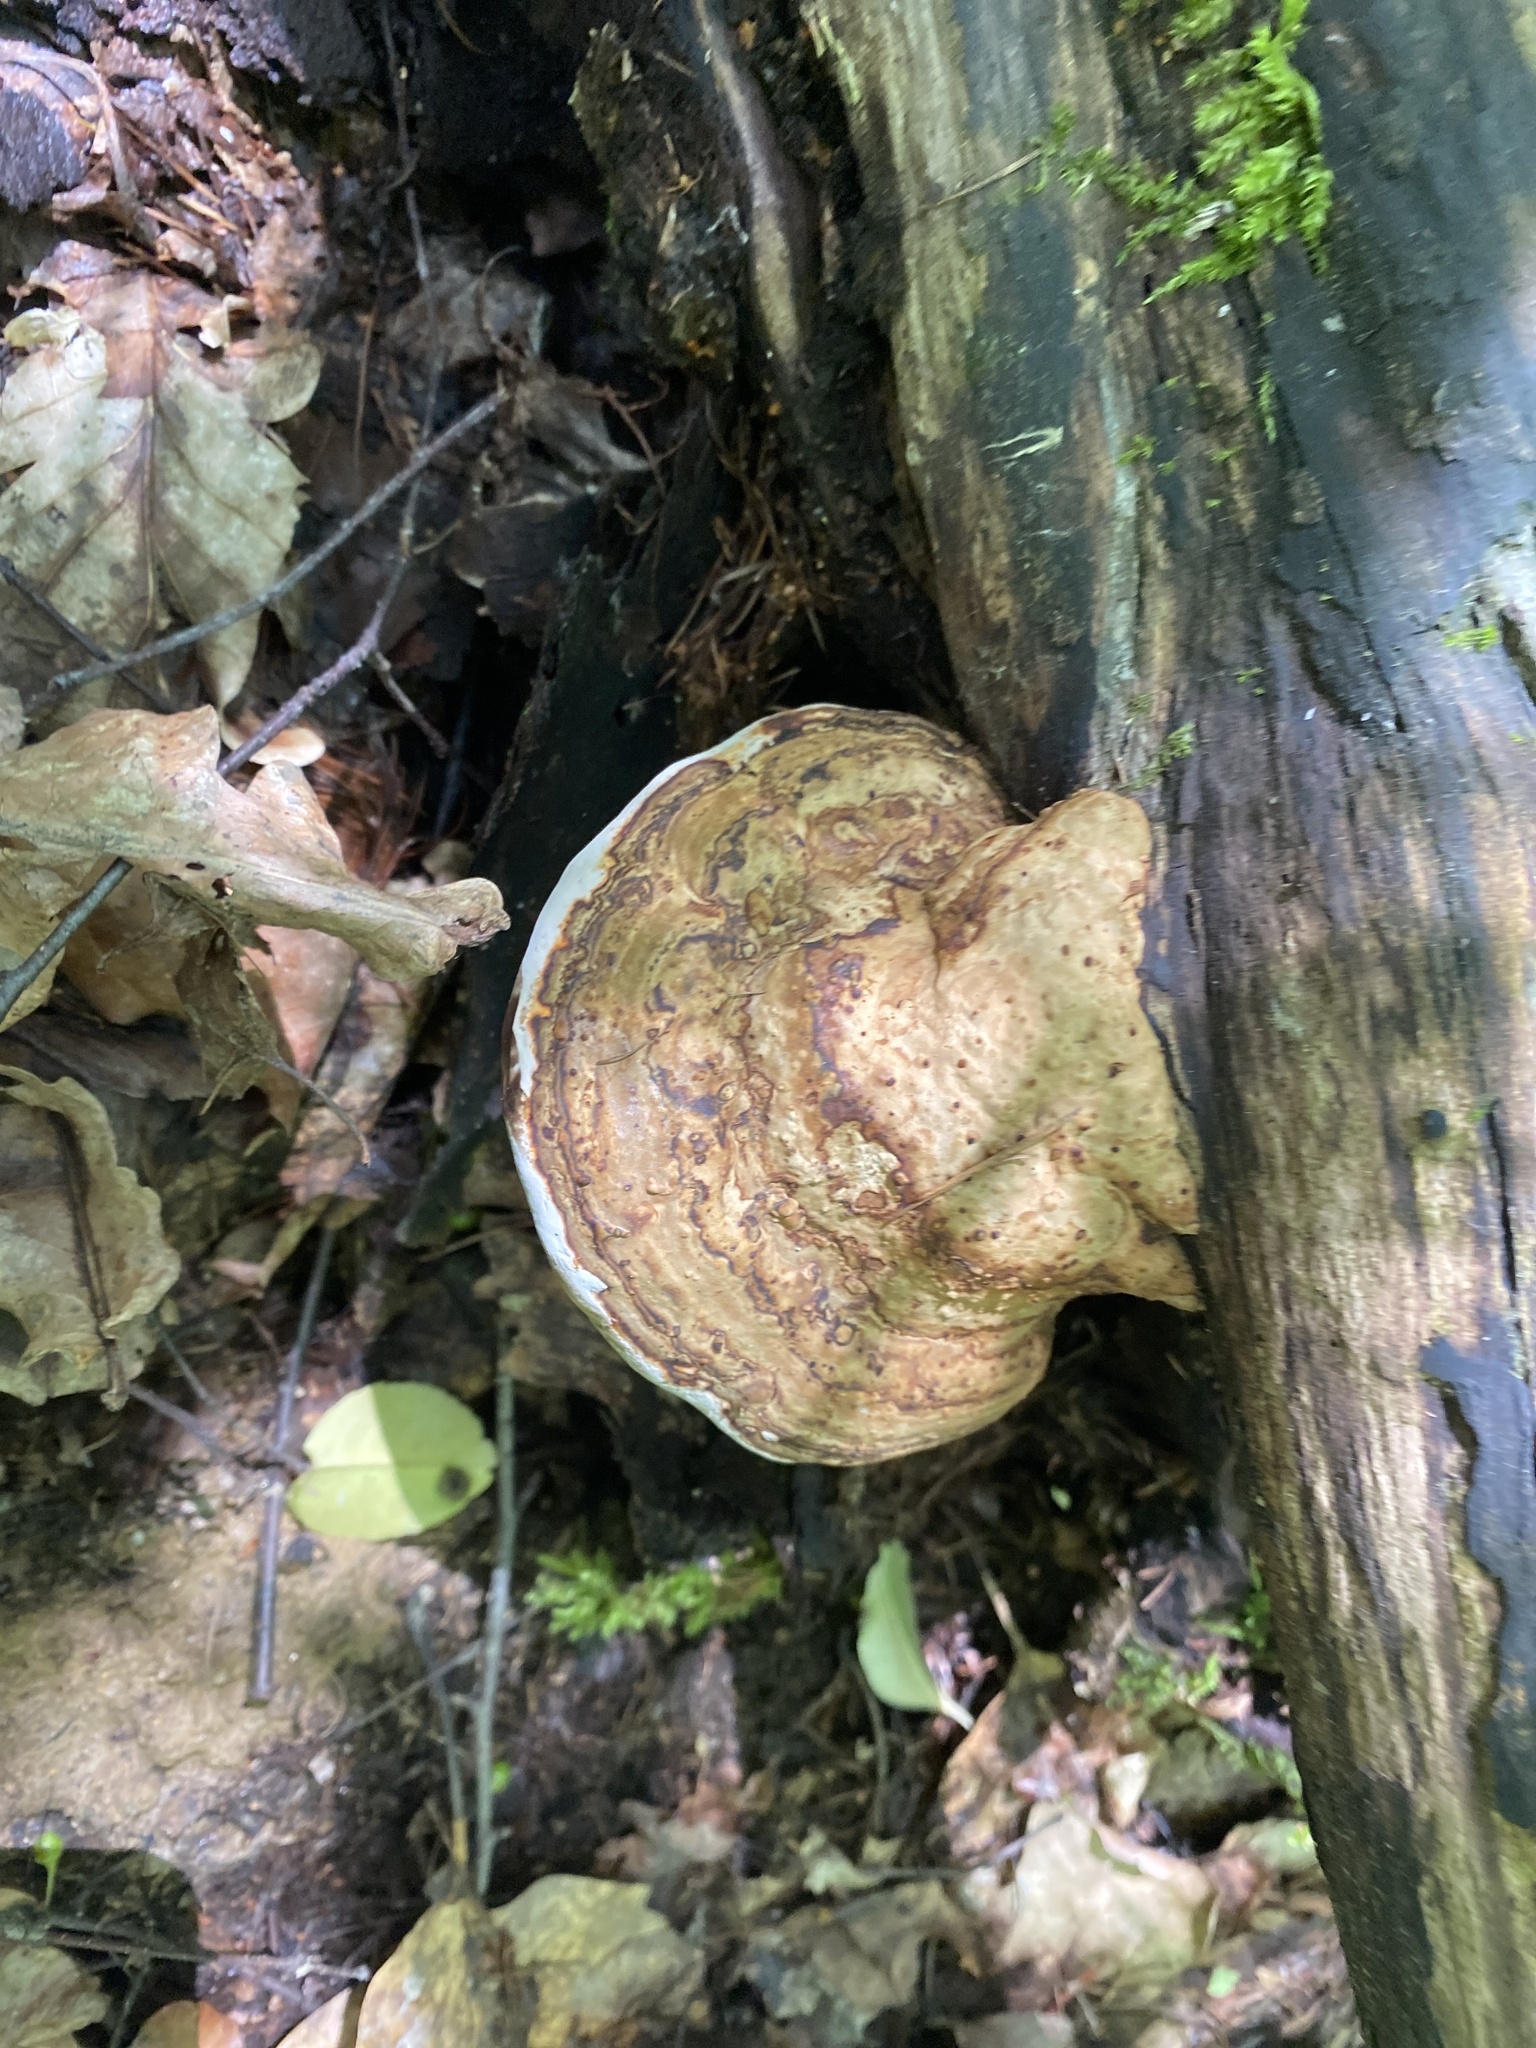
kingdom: Fungi
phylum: Basidiomycota
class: Agaricomycetes
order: Polyporales
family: Polyporaceae
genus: Fomes
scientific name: Fomes fomentarius
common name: Hoof fungus
